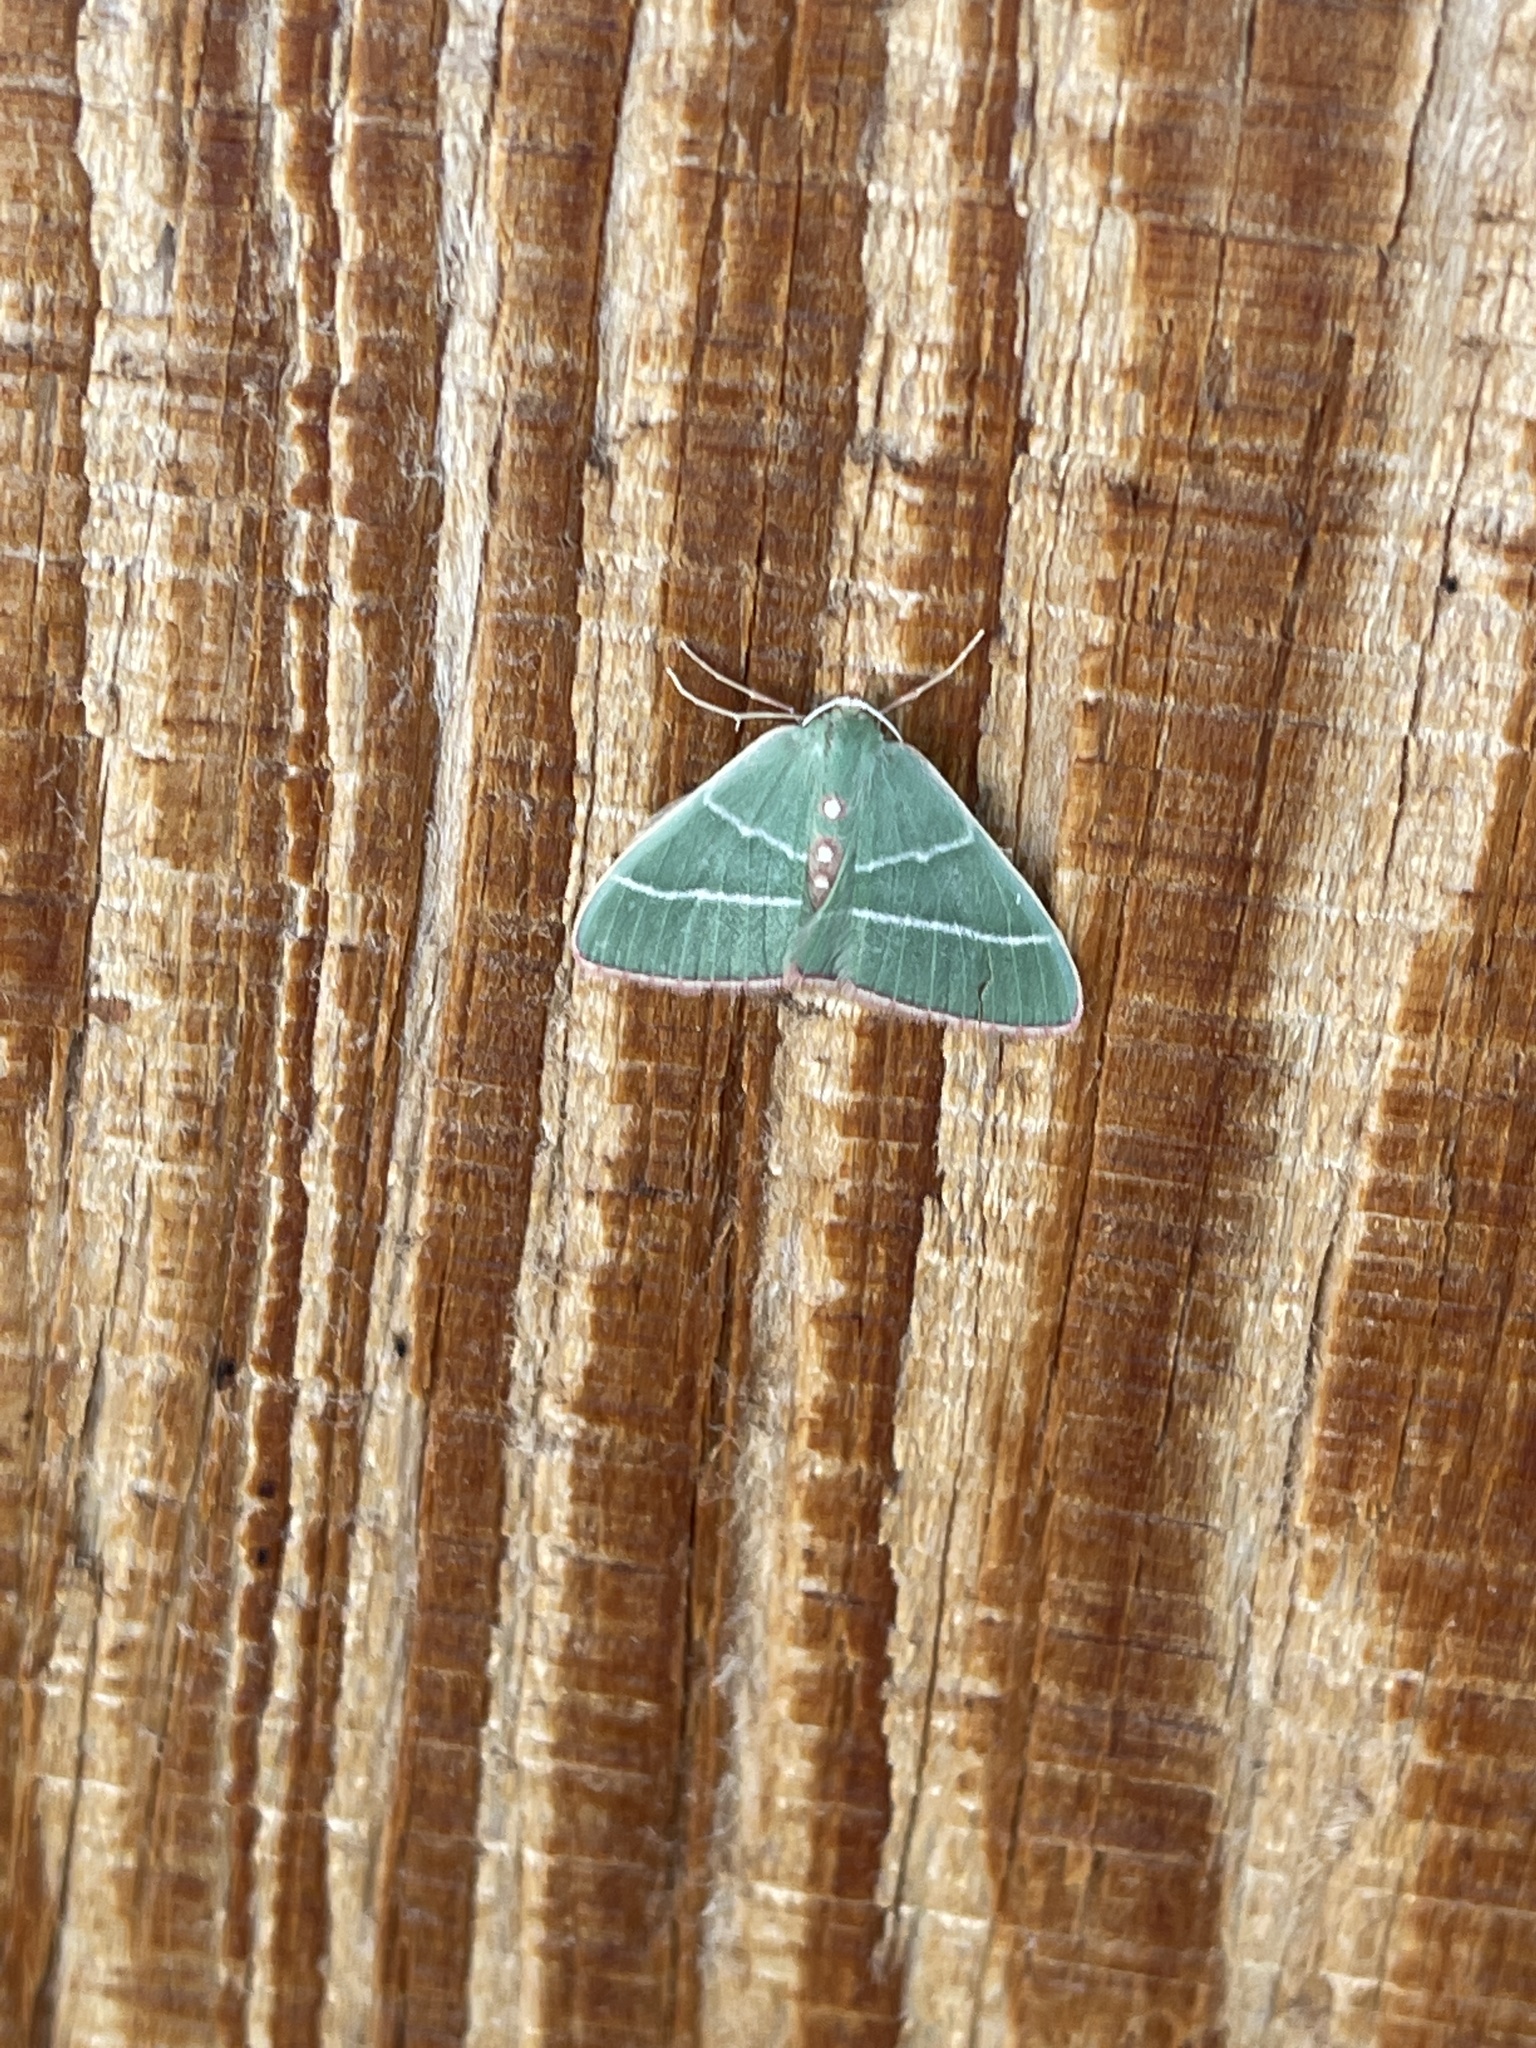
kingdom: Animalia
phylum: Arthropoda
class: Insecta
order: Lepidoptera
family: Geometridae
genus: Nemoria
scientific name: Nemoria obliqua
